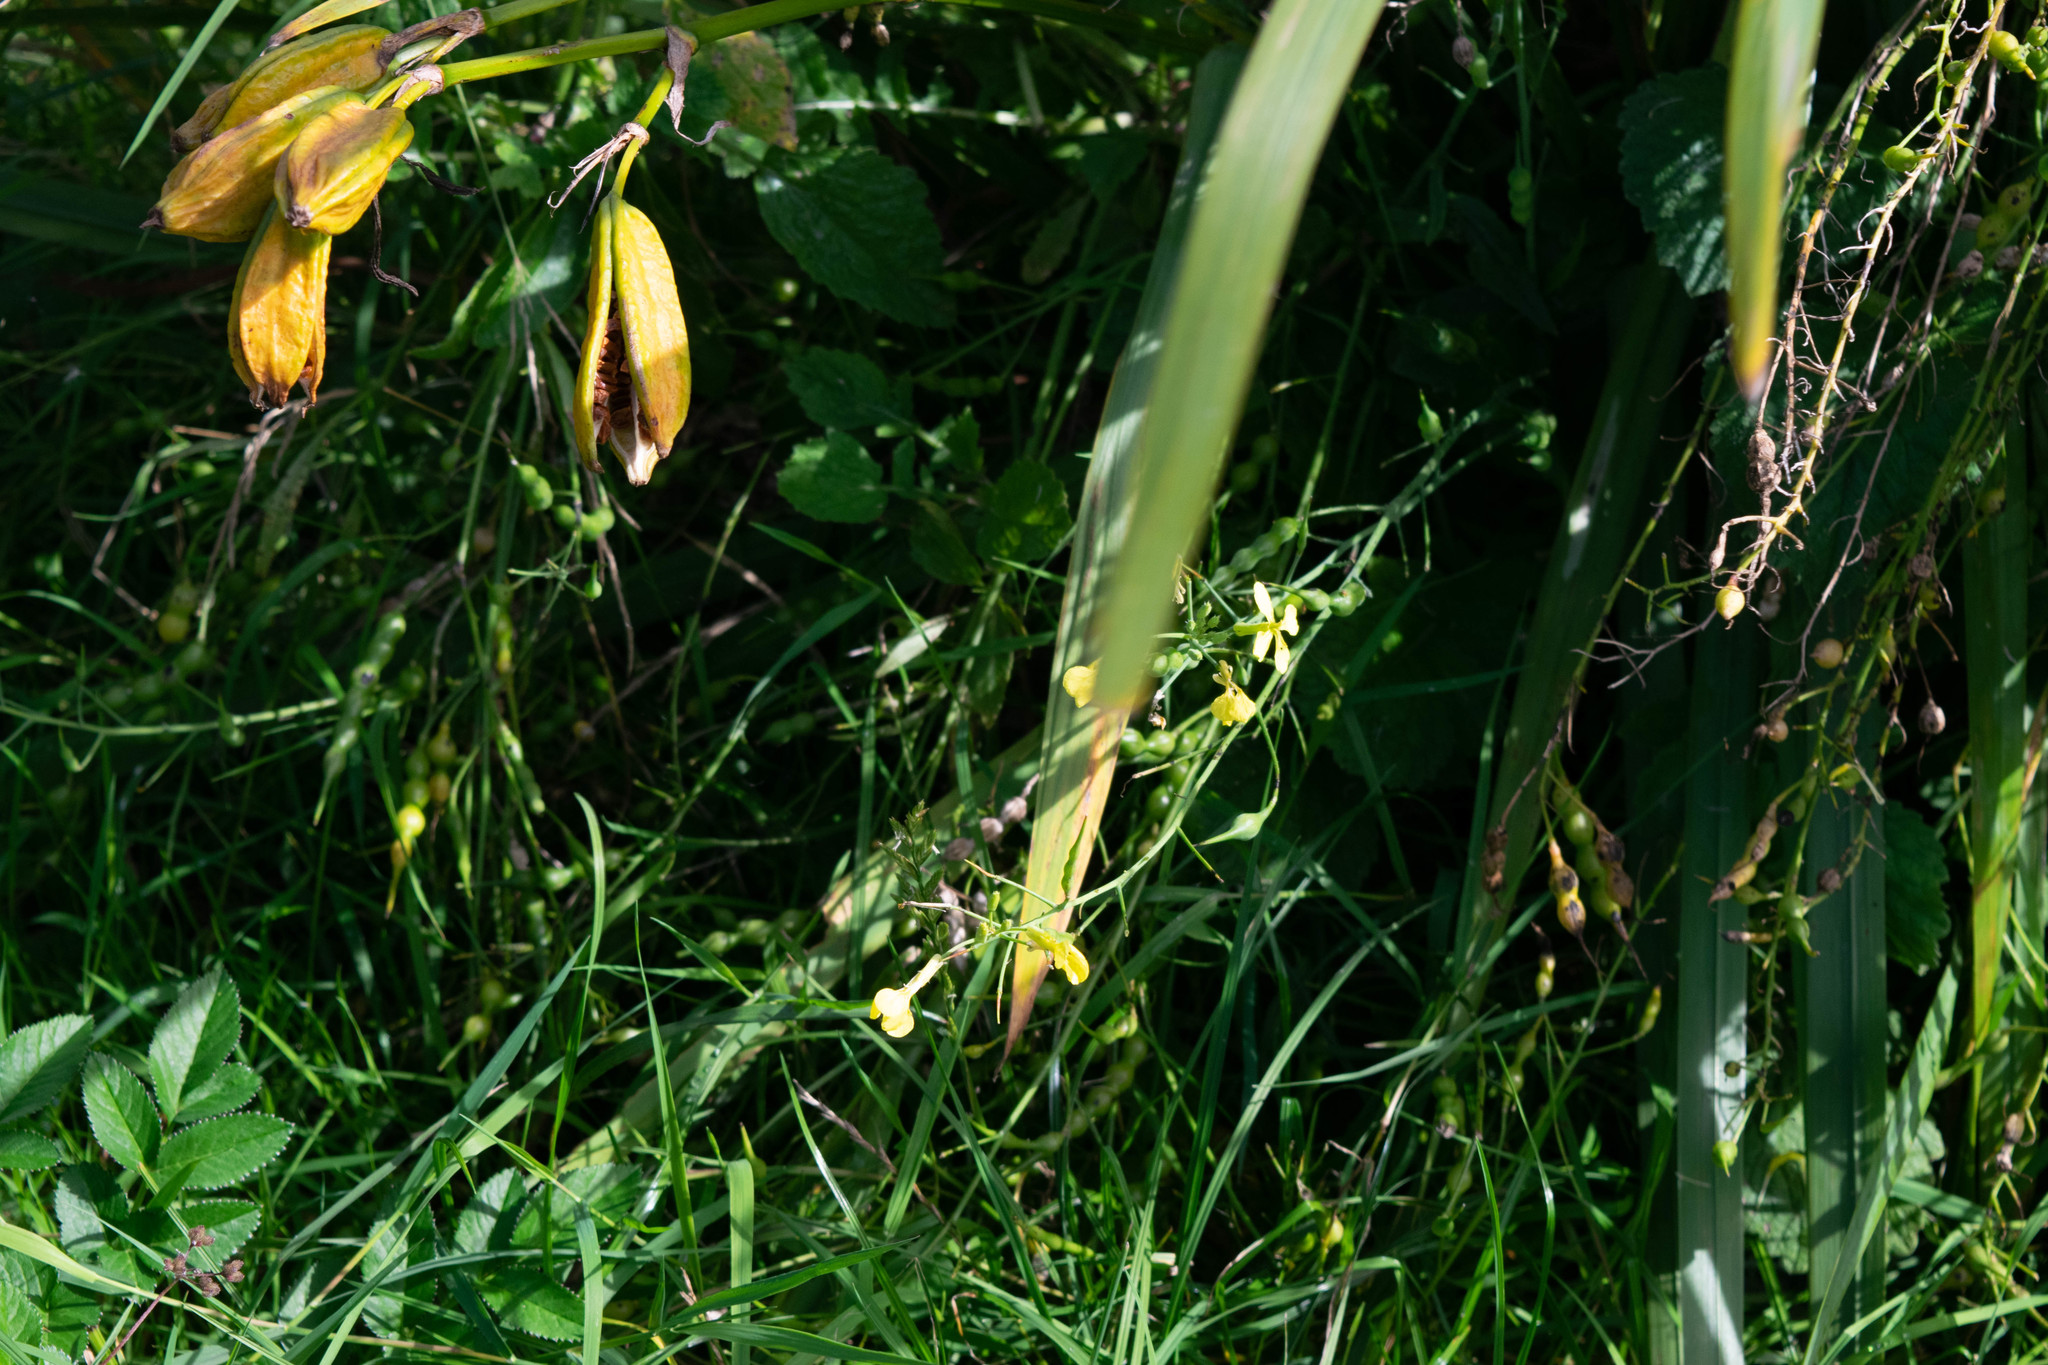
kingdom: Plantae
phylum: Tracheophyta
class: Liliopsida
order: Asparagales
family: Iridaceae
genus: Iris
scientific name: Iris pseudacorus
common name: Yellow flag
